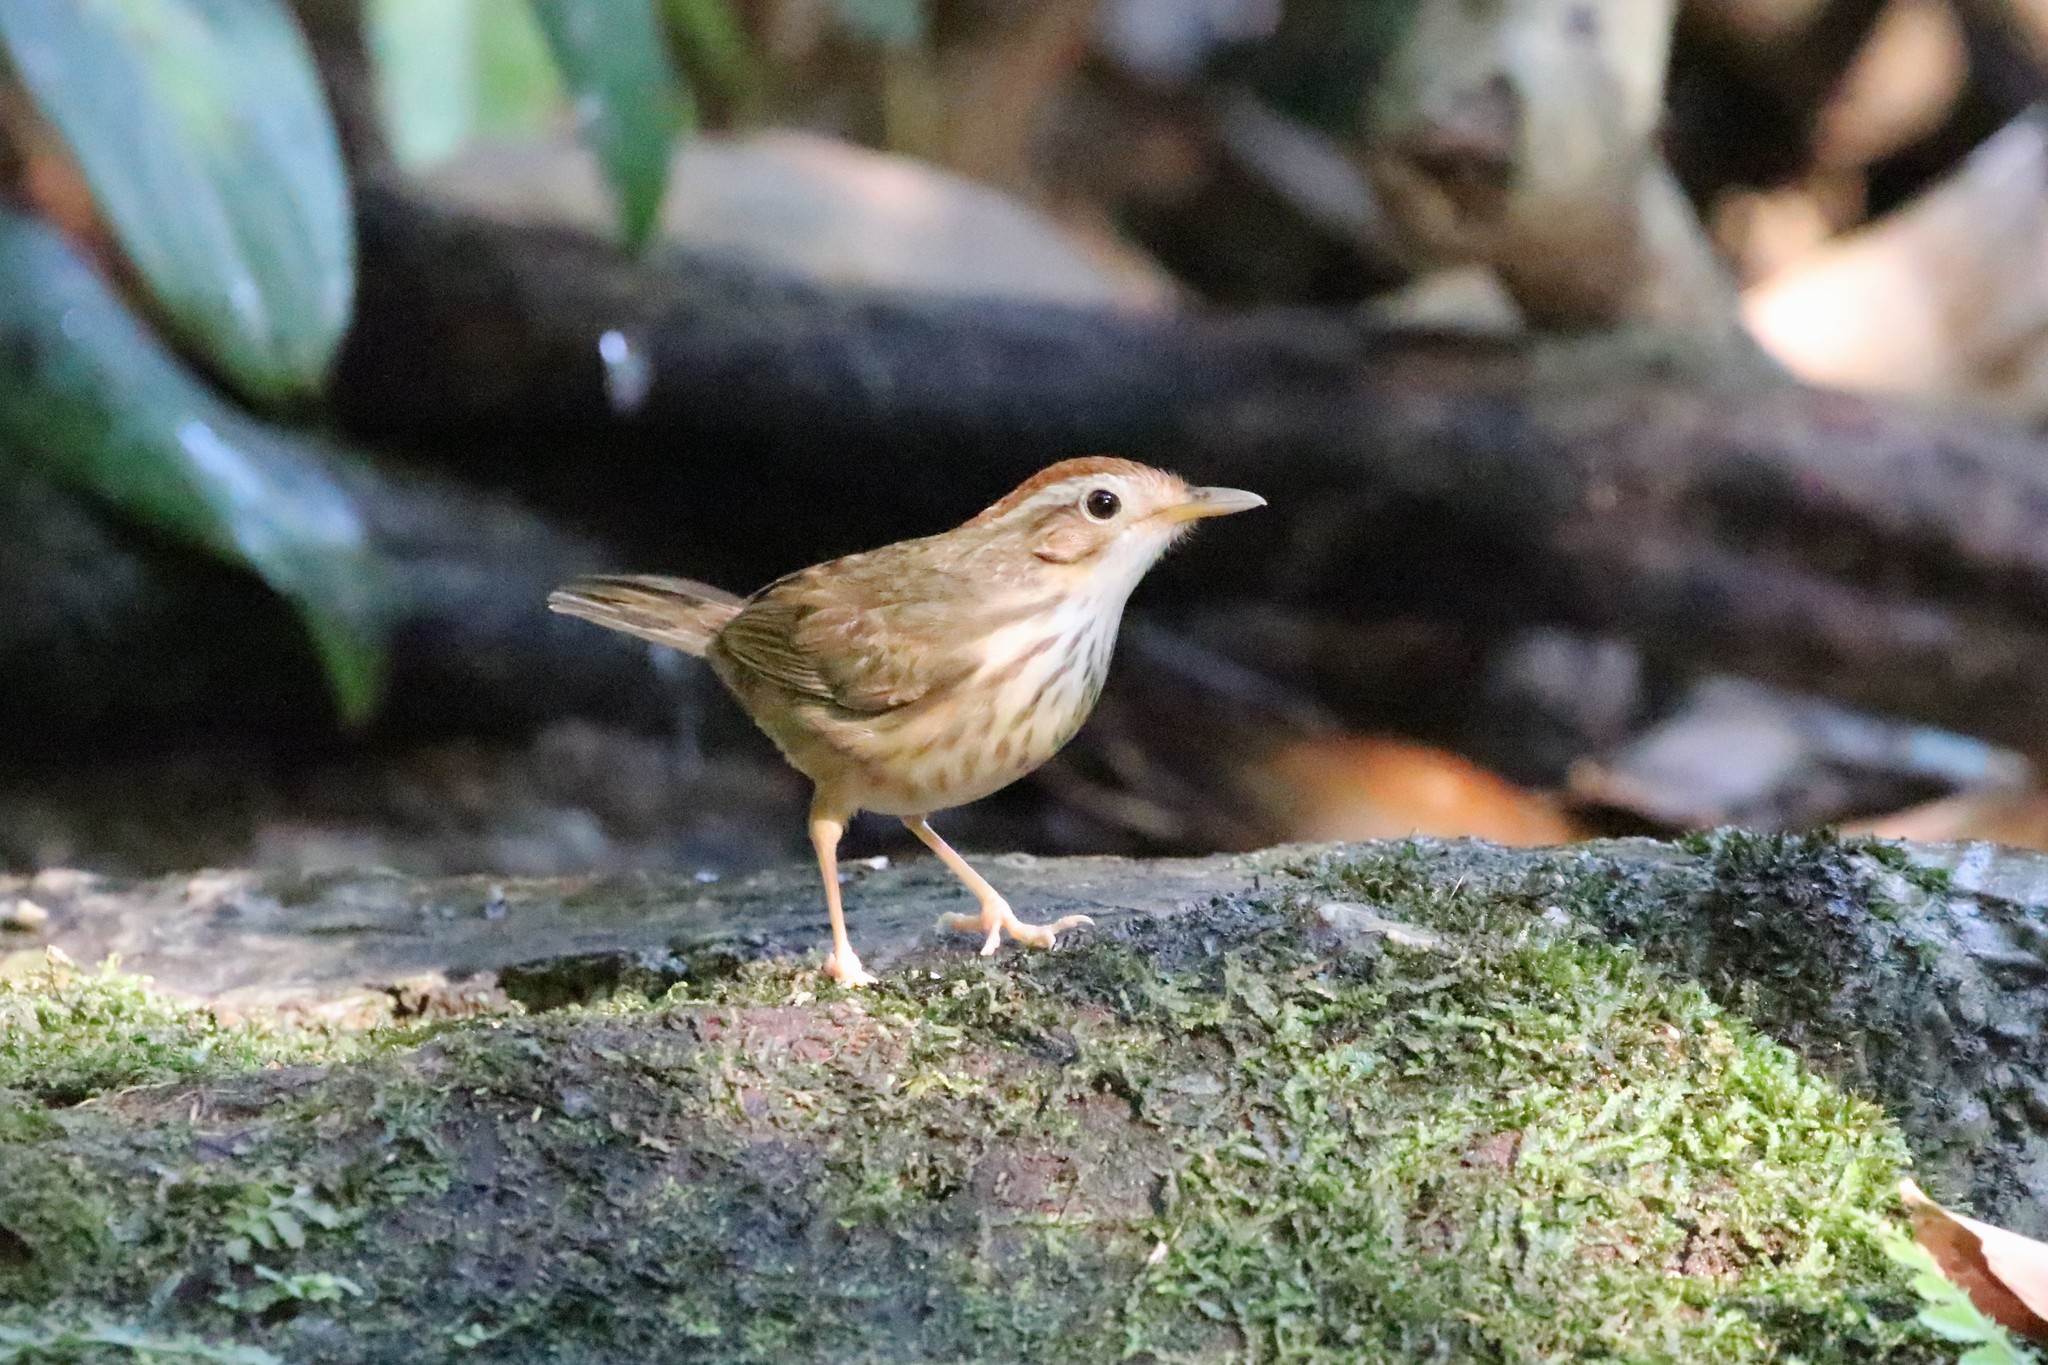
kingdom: Animalia
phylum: Chordata
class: Aves
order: Passeriformes
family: Pellorneidae
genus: Pellorneum
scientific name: Pellorneum ruficeps
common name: Puff-throated babbler
